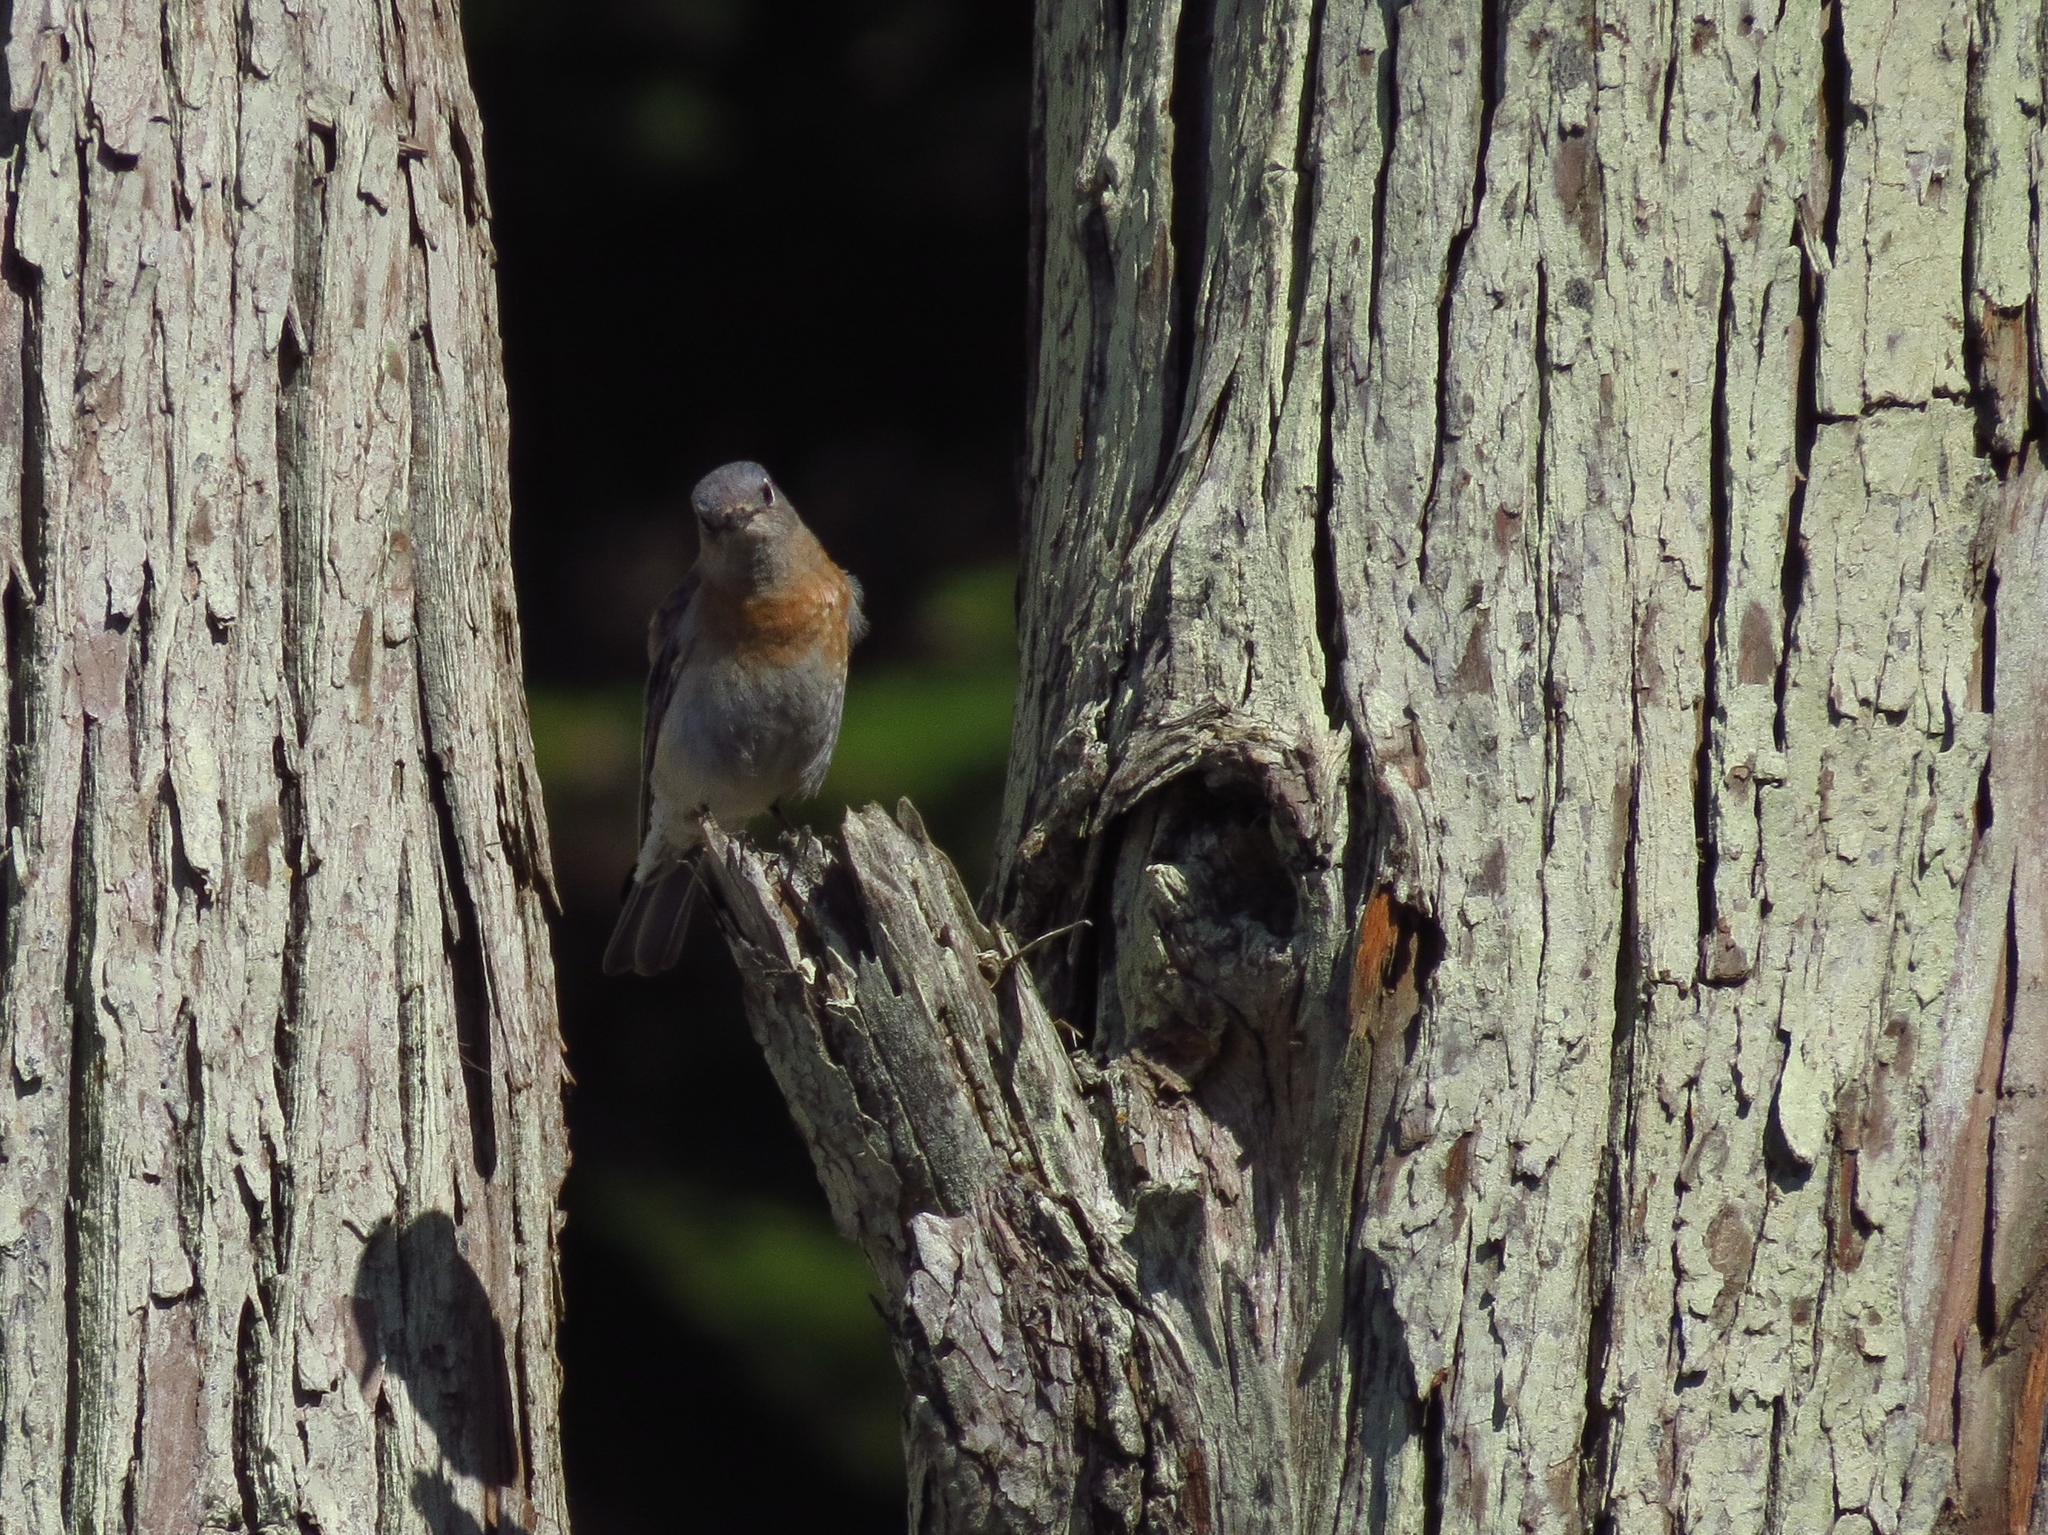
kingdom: Animalia
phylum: Chordata
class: Aves
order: Passeriformes
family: Turdidae
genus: Sialia
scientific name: Sialia mexicana
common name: Western bluebird
